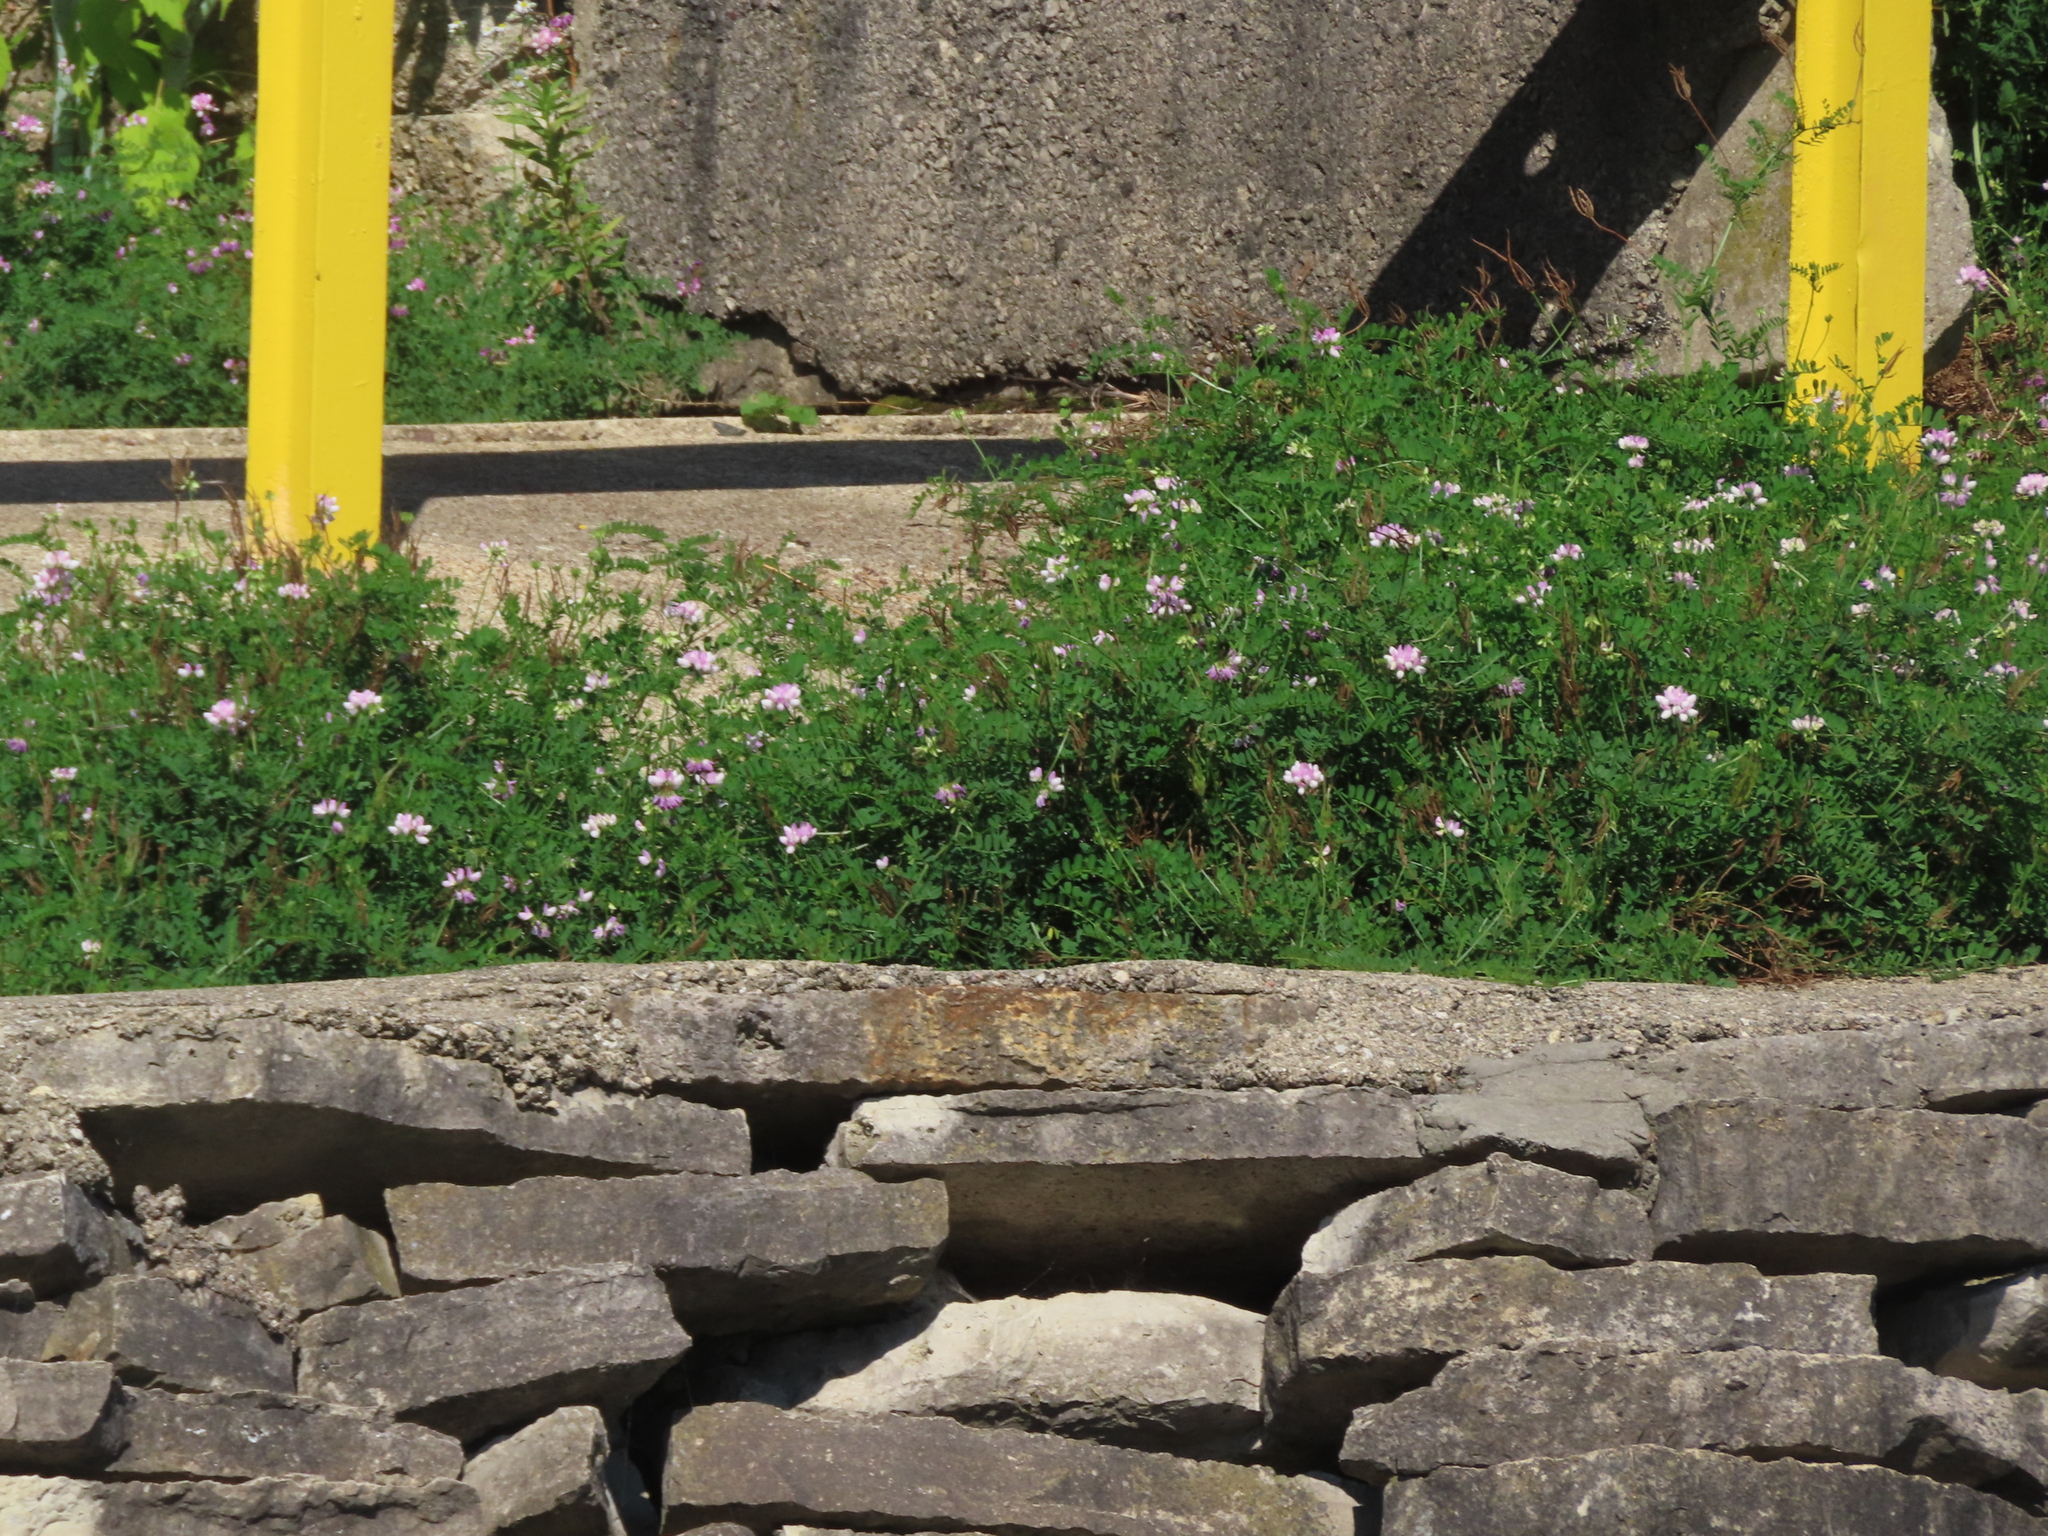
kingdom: Plantae
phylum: Tracheophyta
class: Magnoliopsida
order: Fabales
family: Fabaceae
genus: Coronilla
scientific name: Coronilla varia
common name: Crownvetch
